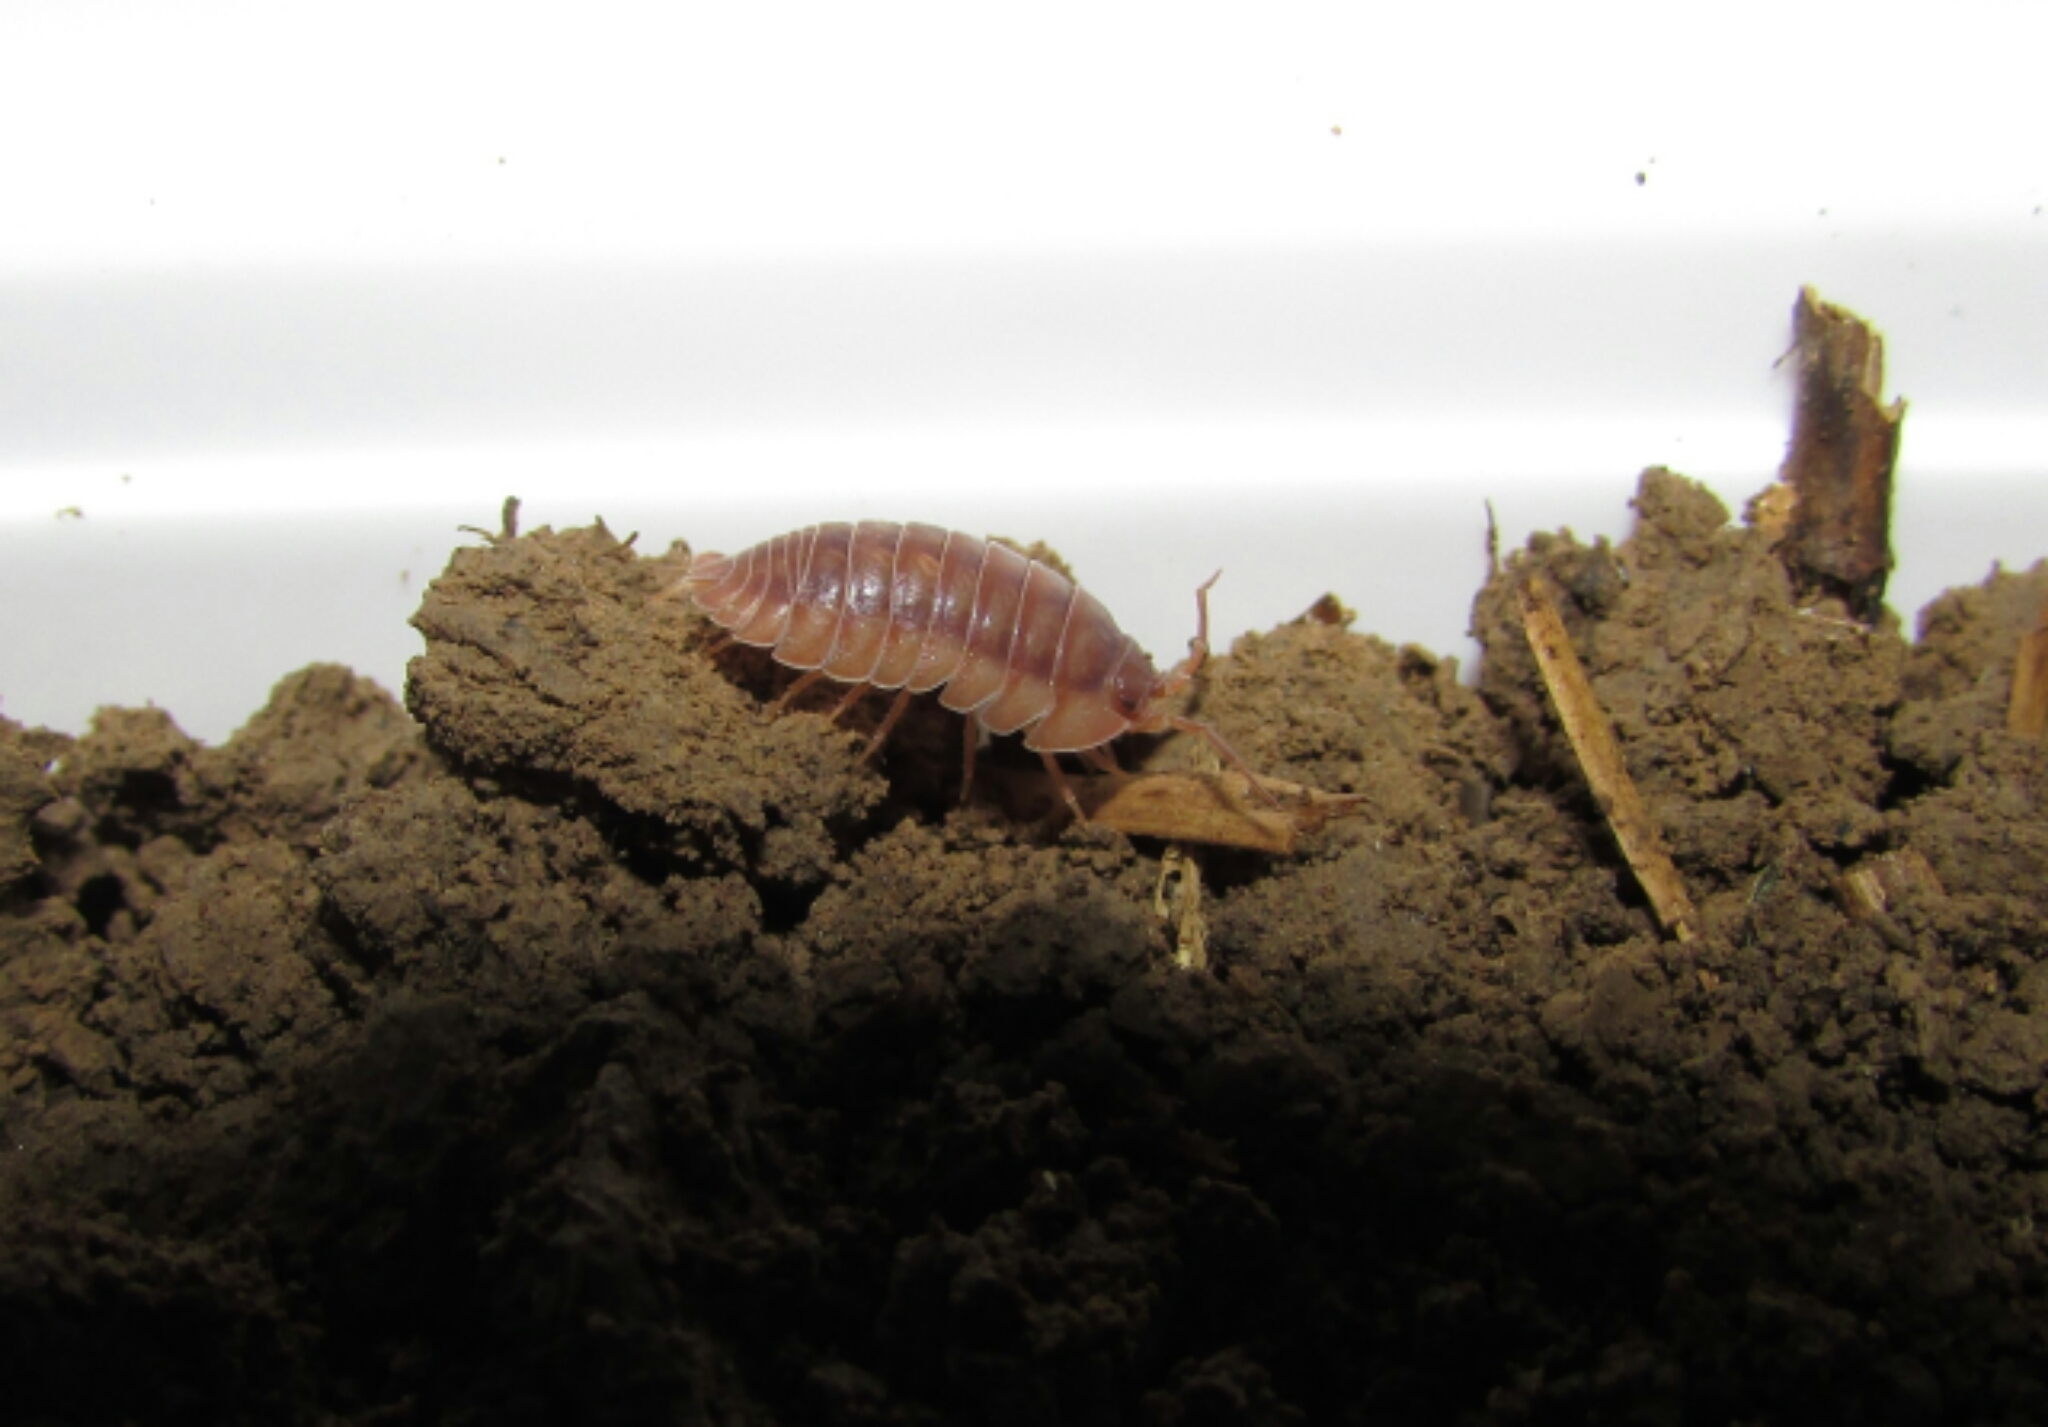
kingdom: Animalia
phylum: Arthropoda
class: Malacostraca
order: Isopoda
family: Armadillidiidae
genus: Armadillidium
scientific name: Armadillidium nasatum
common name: Isopod
